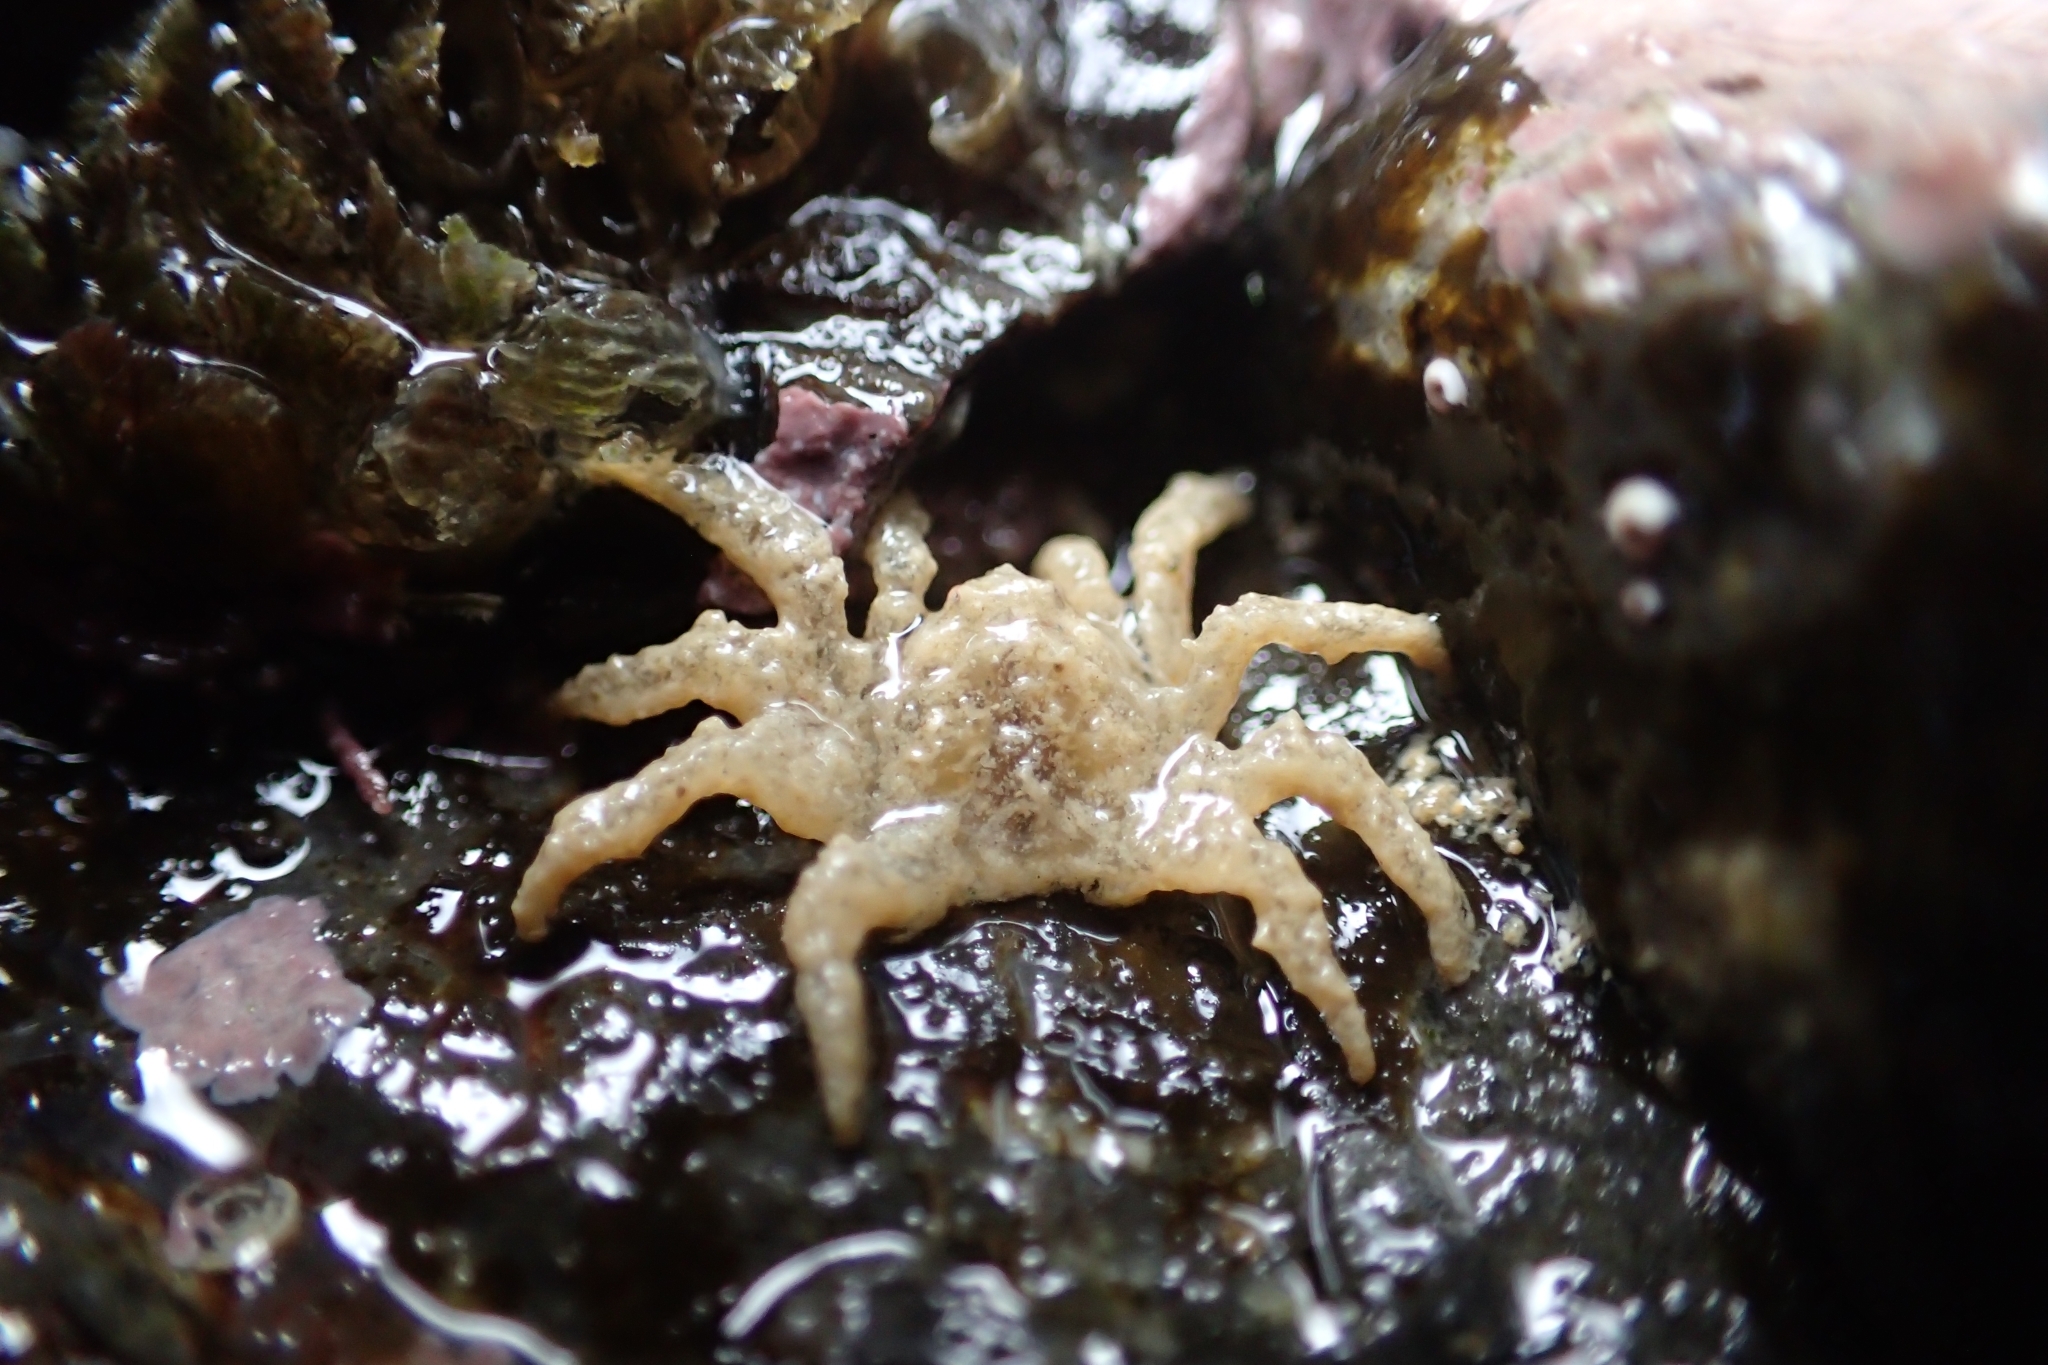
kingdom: Animalia
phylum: Arthropoda
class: Malacostraca
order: Decapoda
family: Hymenosomatidae
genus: Neohymenicus
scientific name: Neohymenicus pubescens
